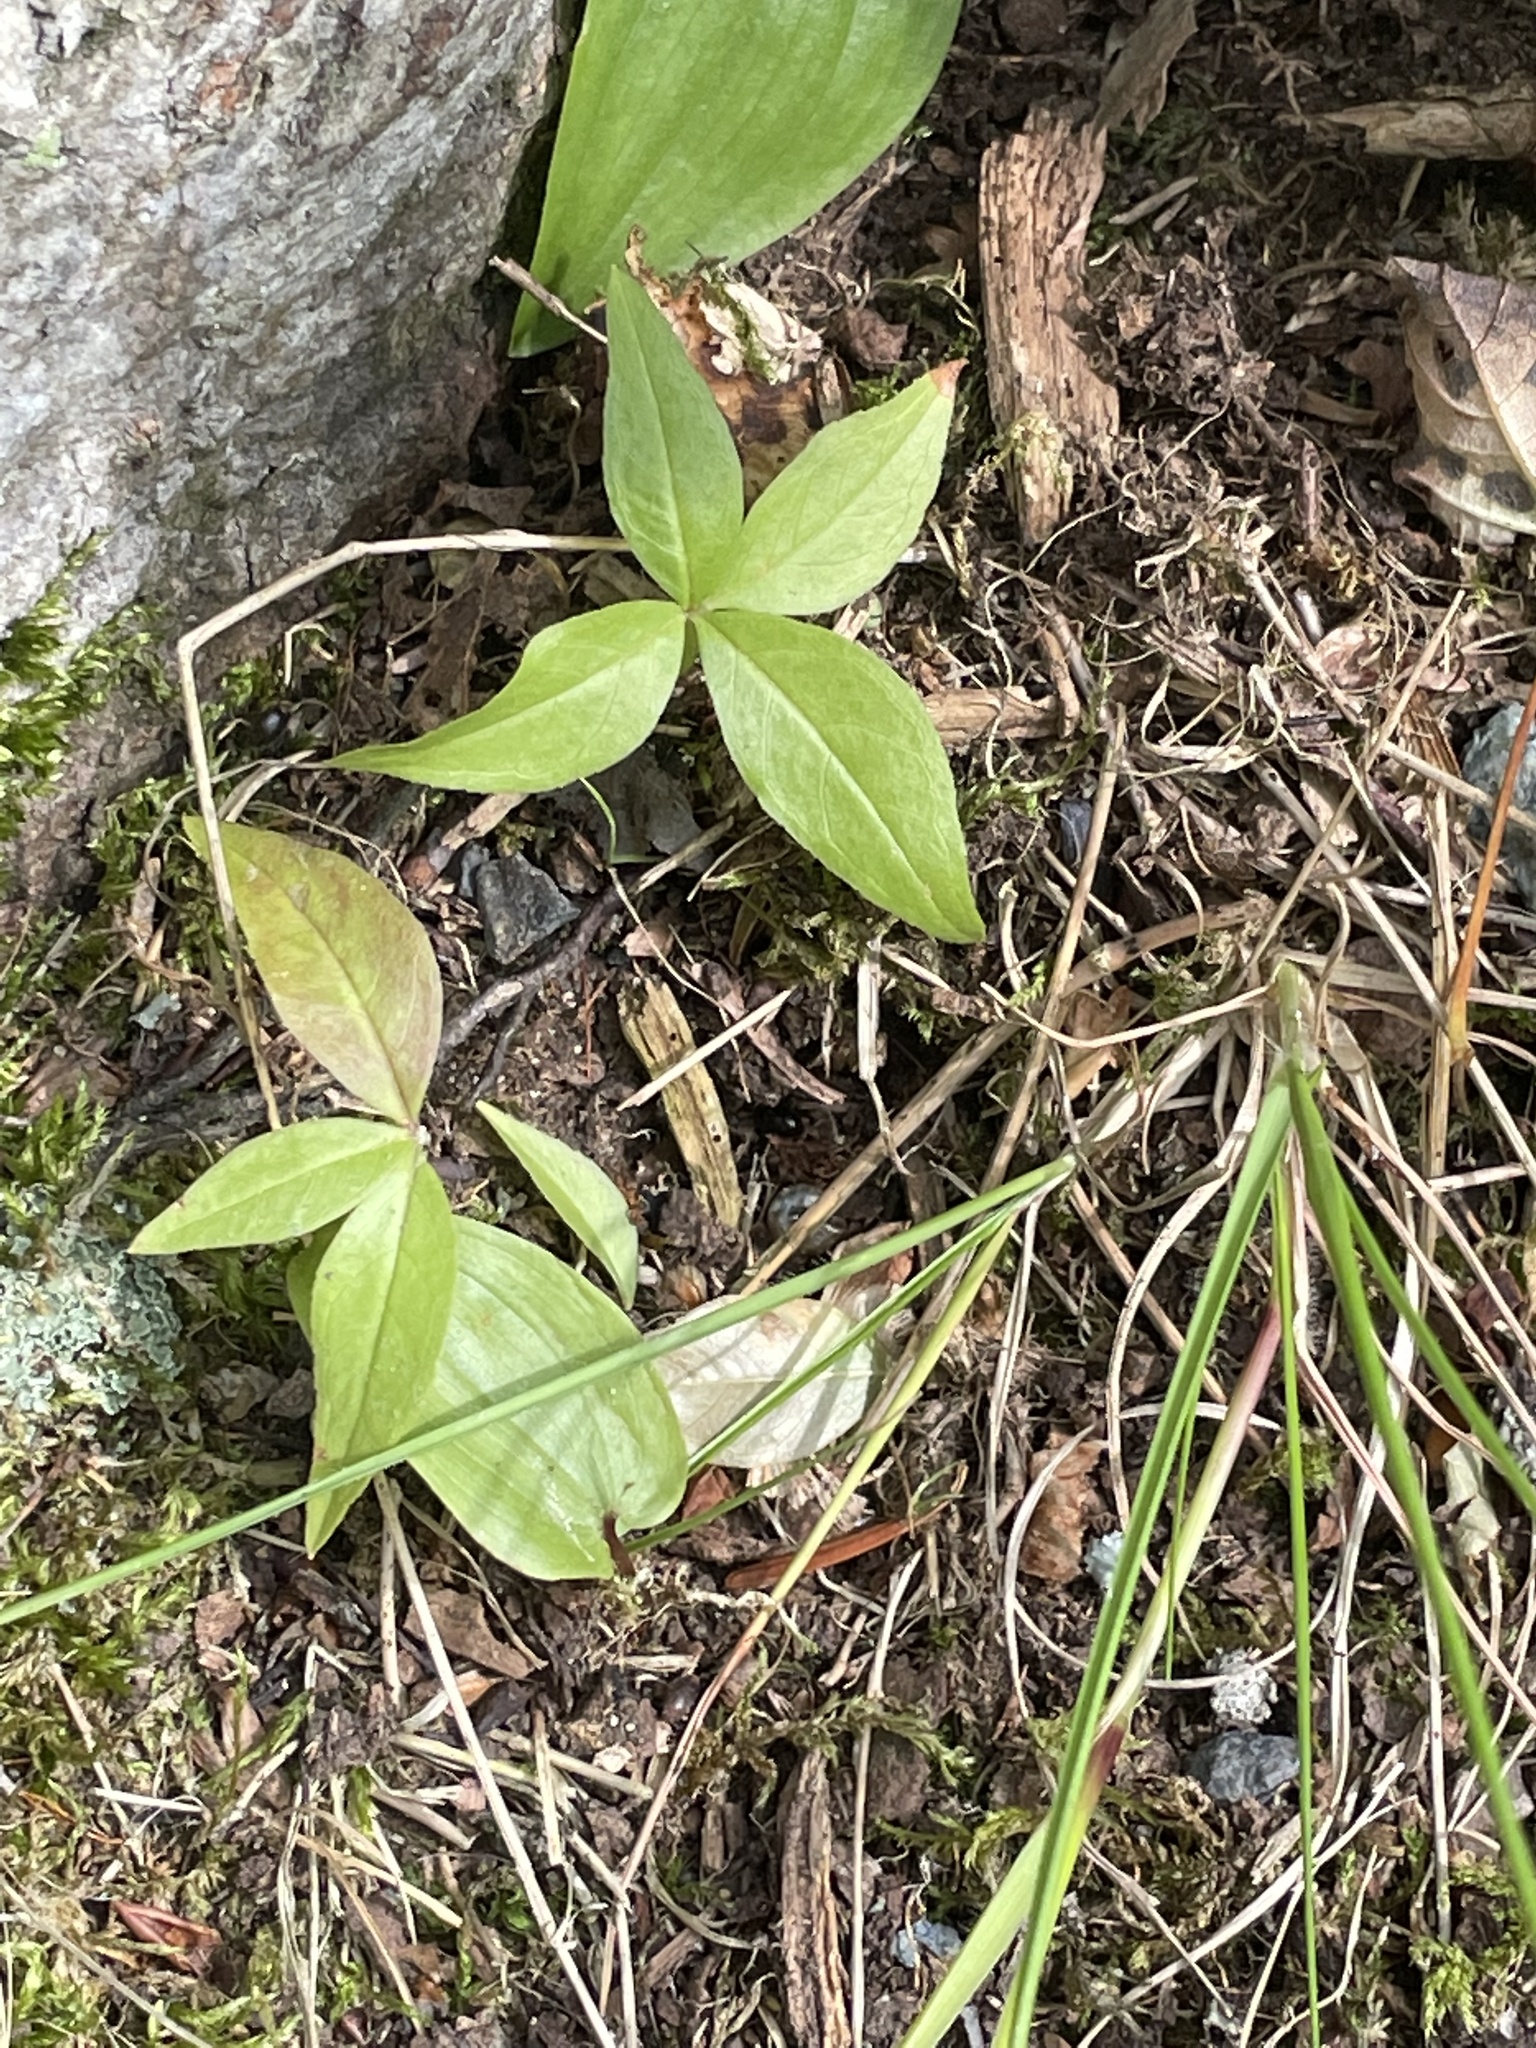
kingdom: Plantae
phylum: Tracheophyta
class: Magnoliopsida
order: Ericales
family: Primulaceae
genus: Lysimachia
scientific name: Lysimachia borealis
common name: American starflower
